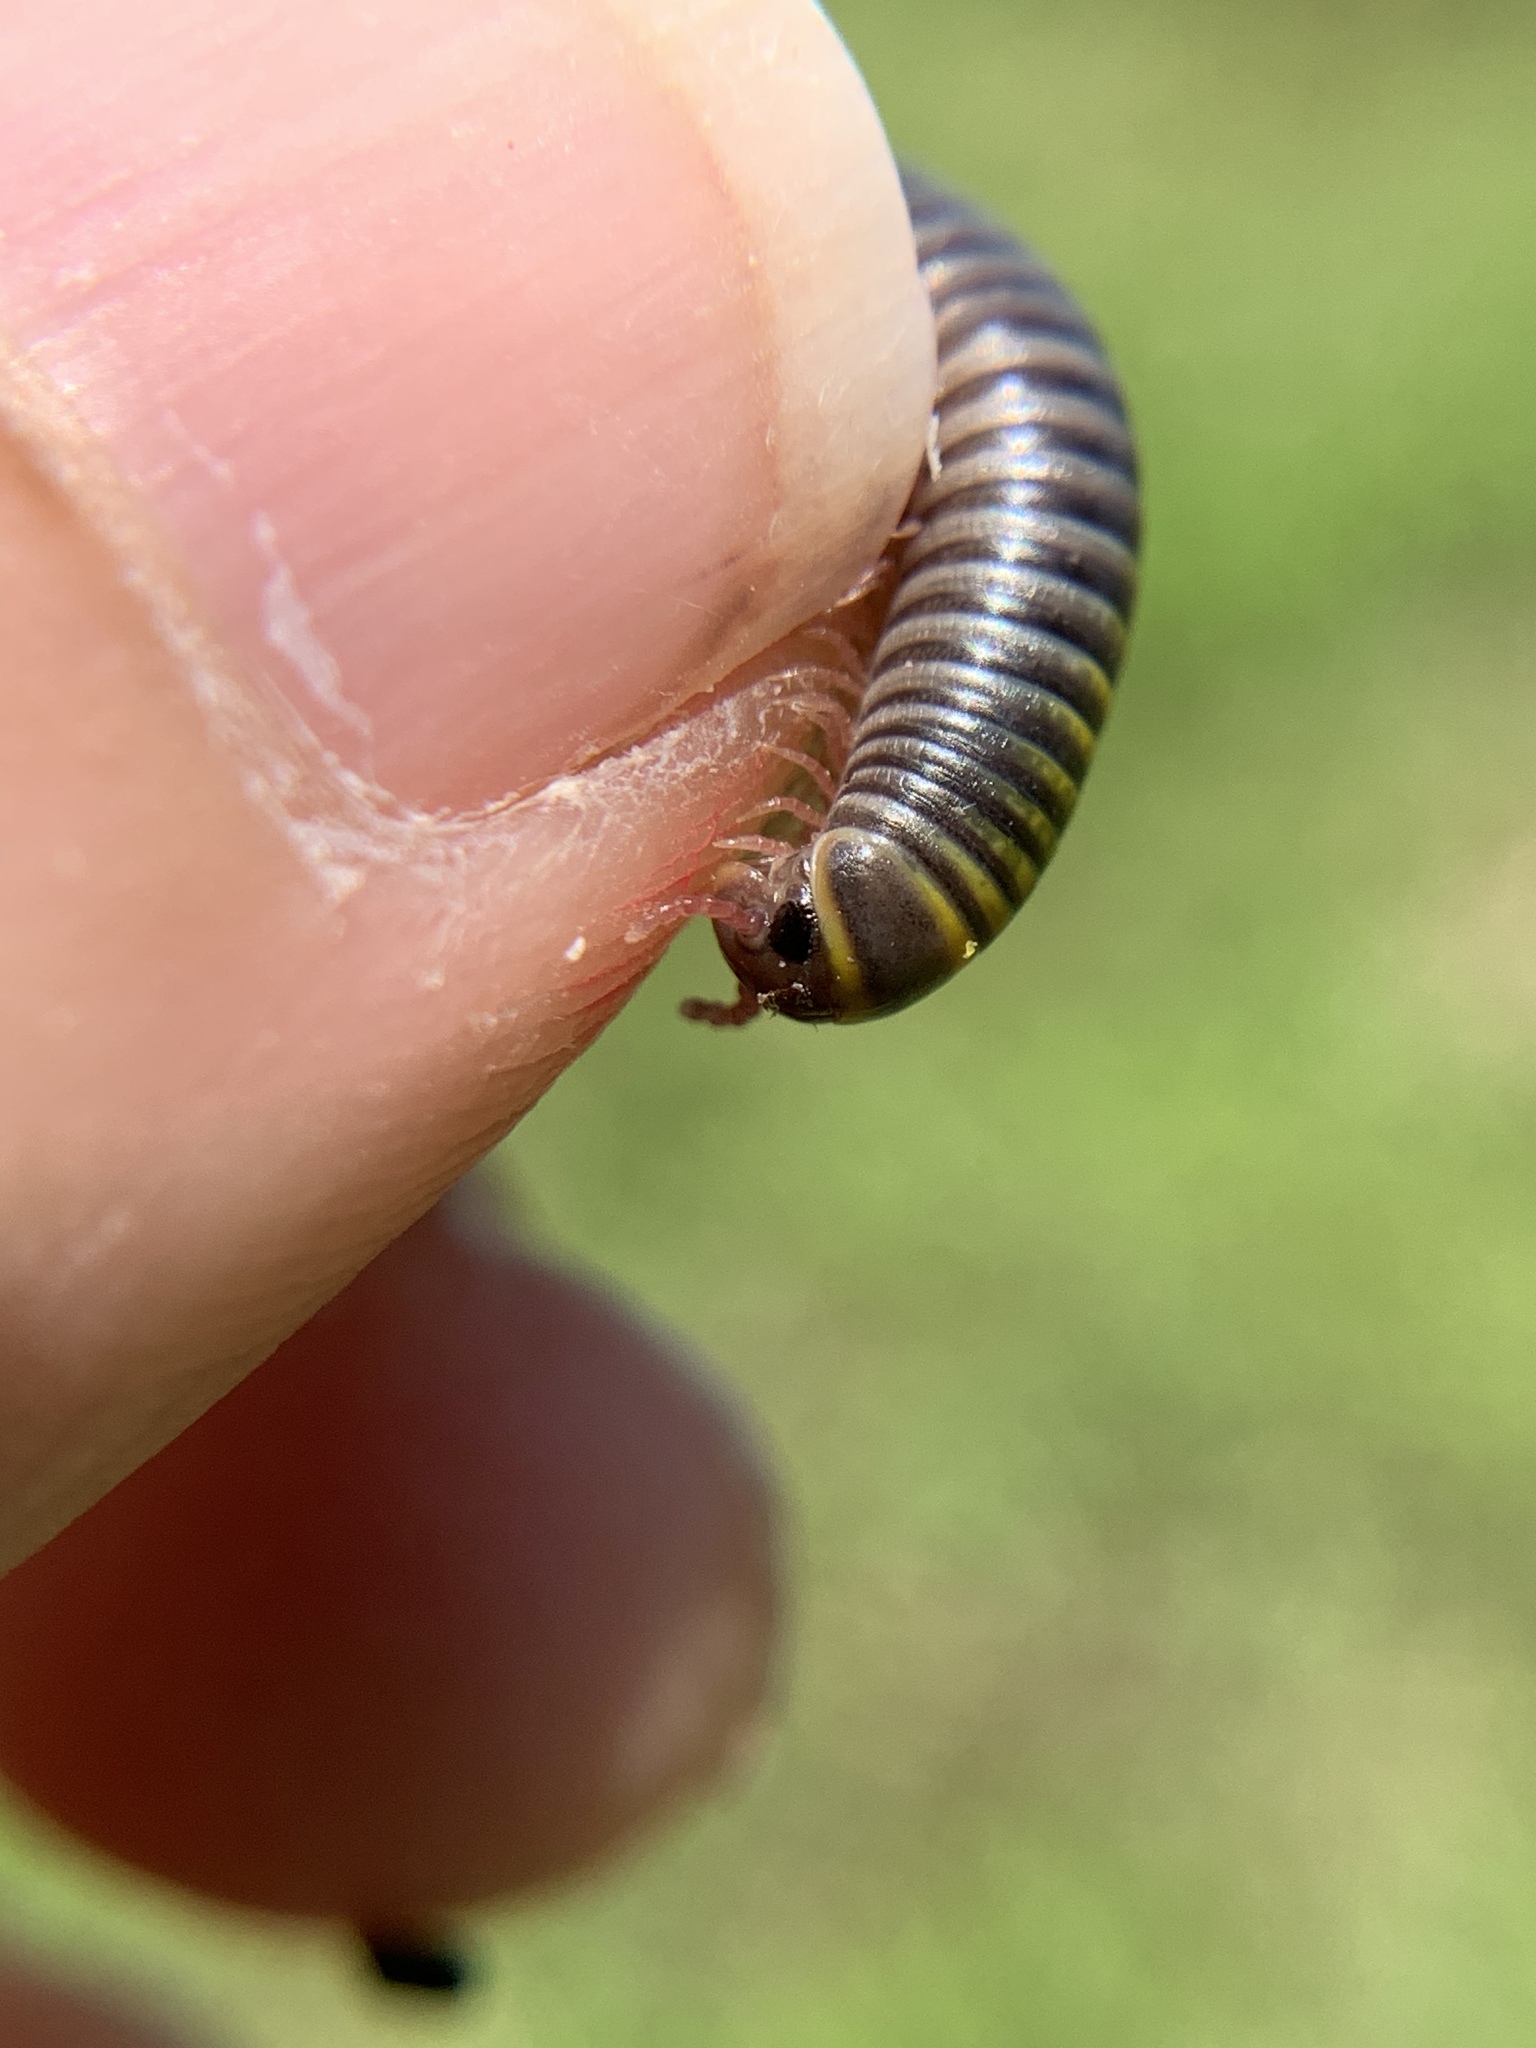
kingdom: Animalia
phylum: Arthropoda
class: Diplopoda
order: Spirobolida
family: Rhinocricidae
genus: Anadenobolus
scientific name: Anadenobolus monilicornis
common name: Caribbean millipede
